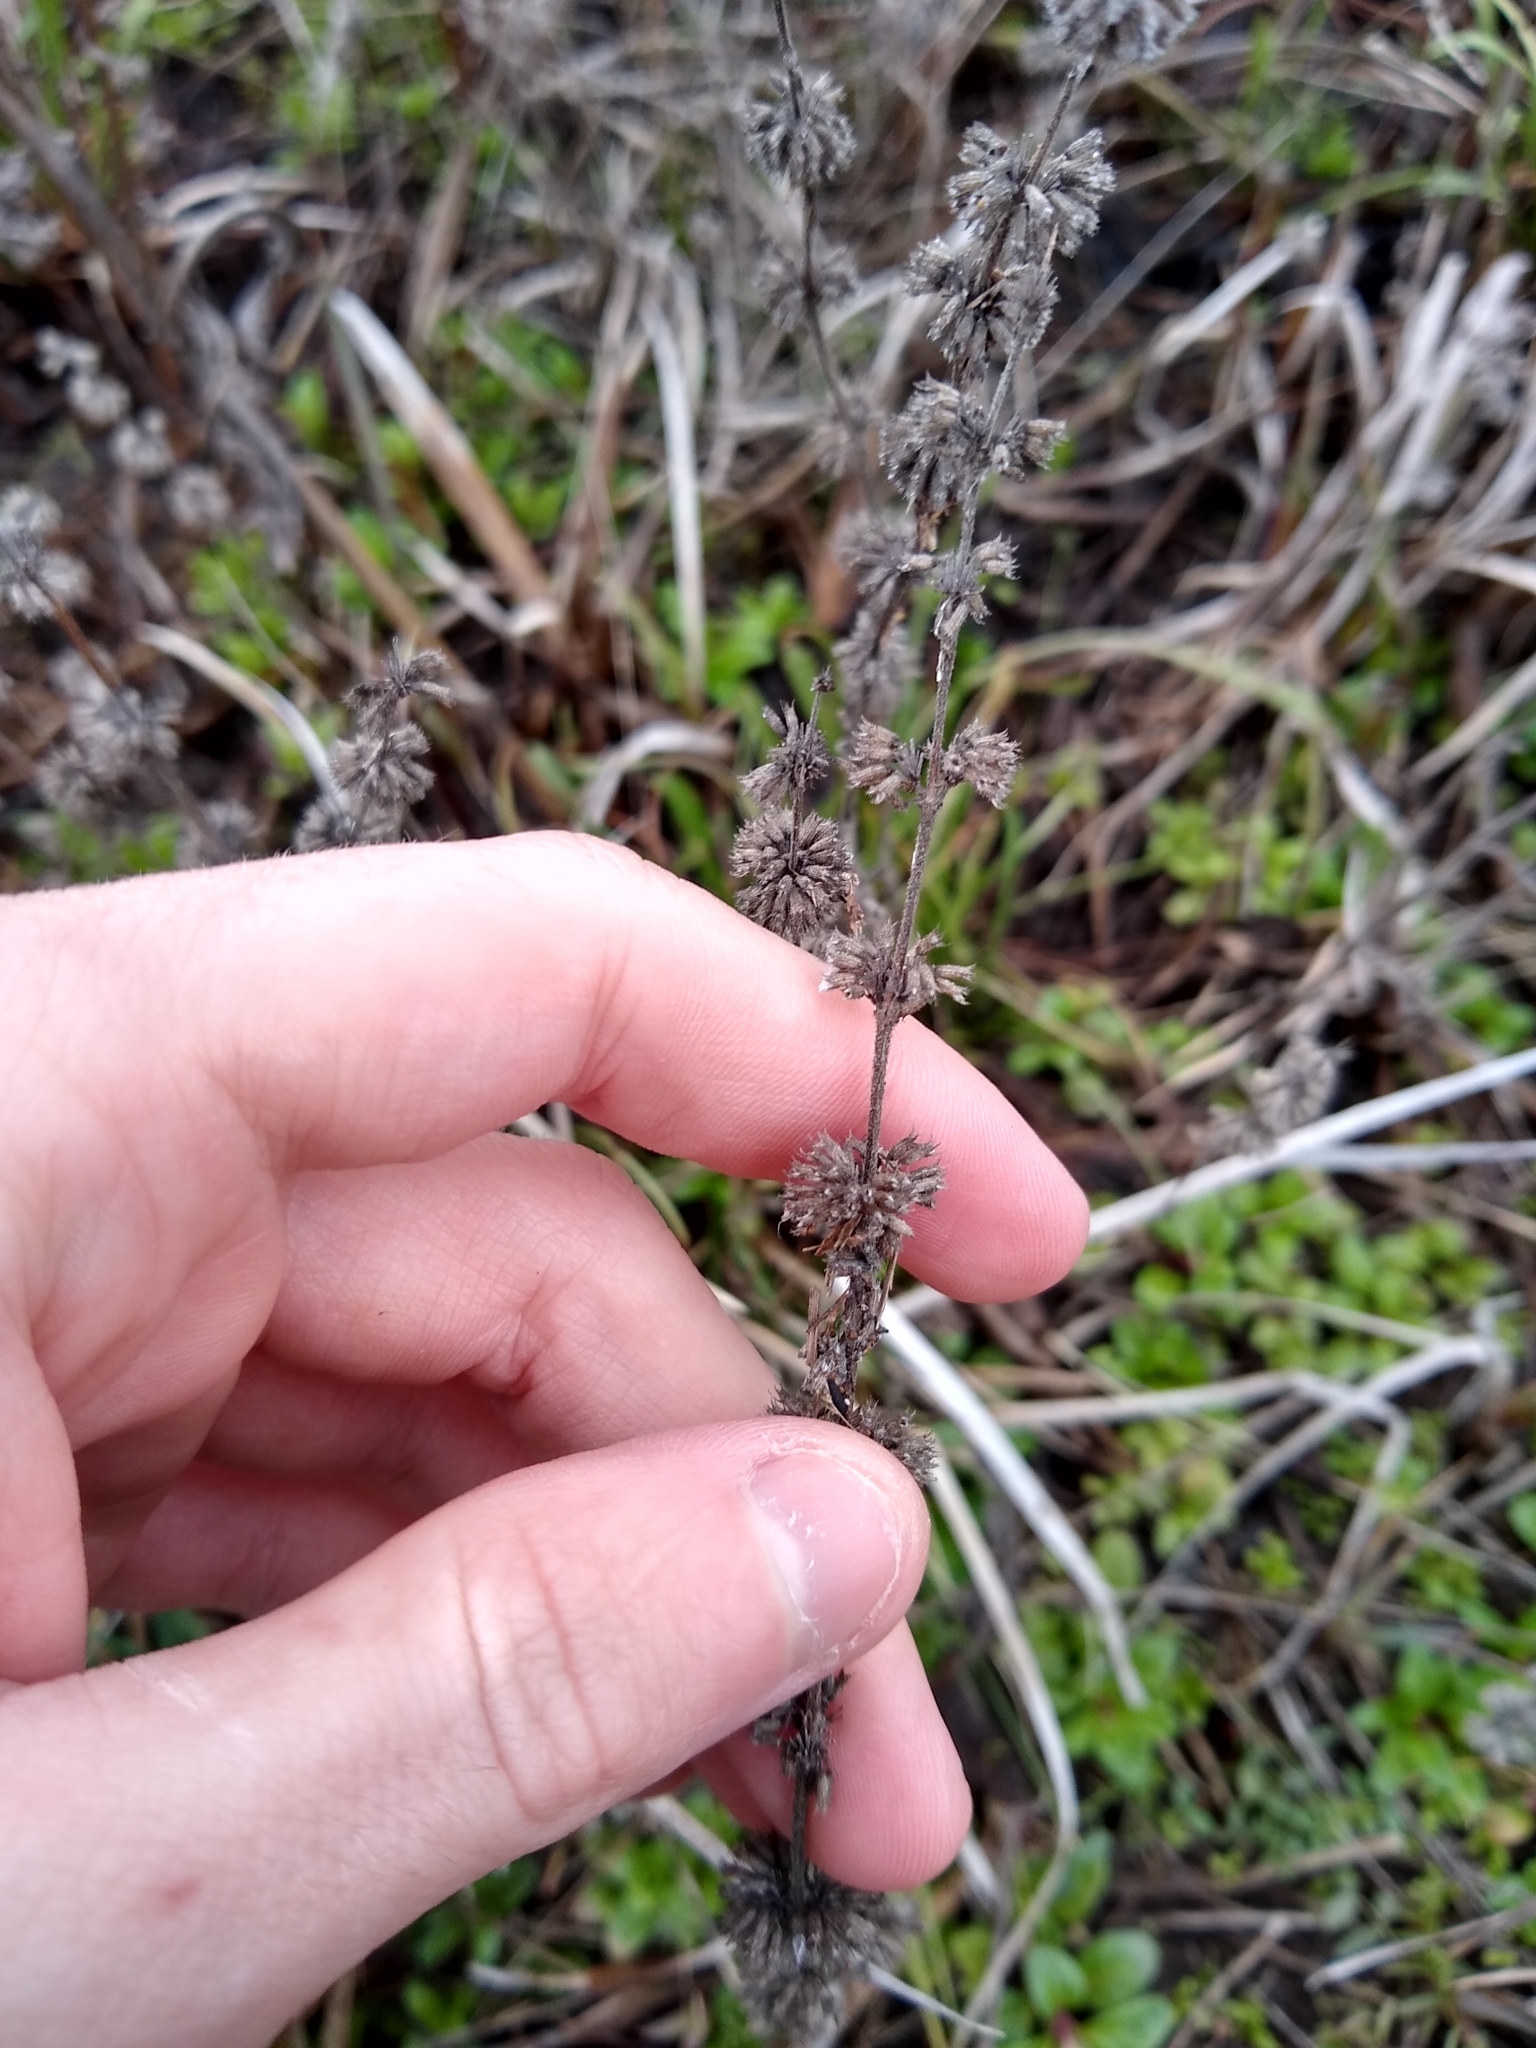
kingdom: Plantae
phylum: Tracheophyta
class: Magnoliopsida
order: Lamiales
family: Lamiaceae
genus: Mentha
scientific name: Mentha pulegium
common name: Pennyroyal
